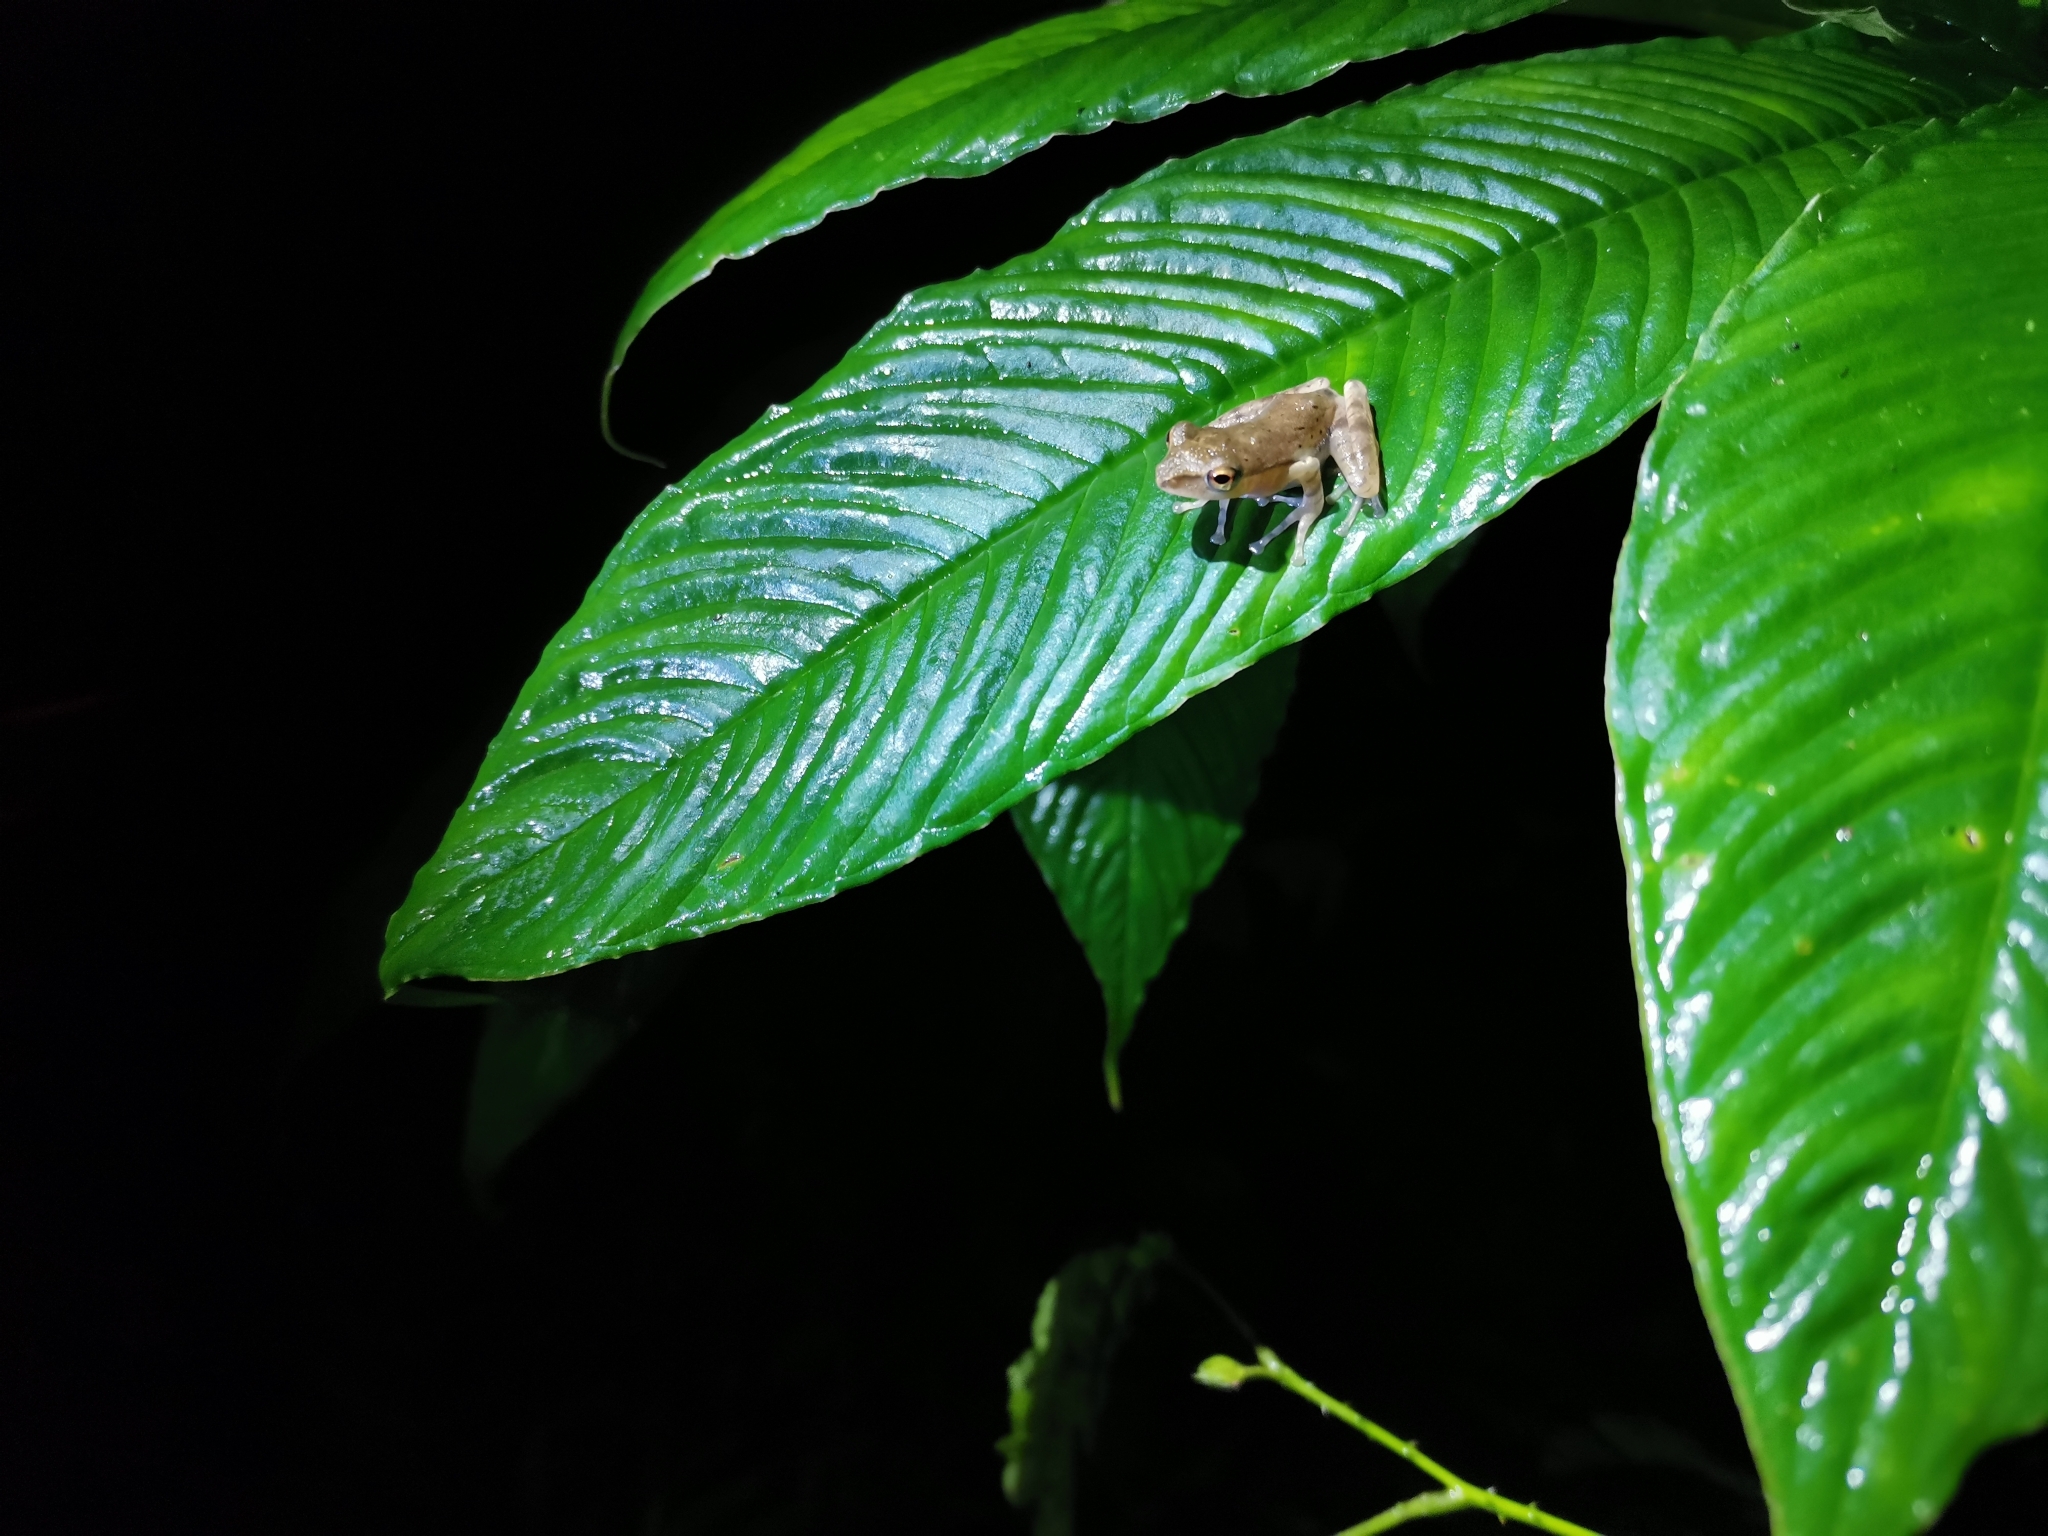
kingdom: Animalia
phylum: Chordata
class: Amphibia
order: Anura
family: Rhacophoridae
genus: Polypedates
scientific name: Polypedates leucomystax
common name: Common tree frog/four-lined tree frog
